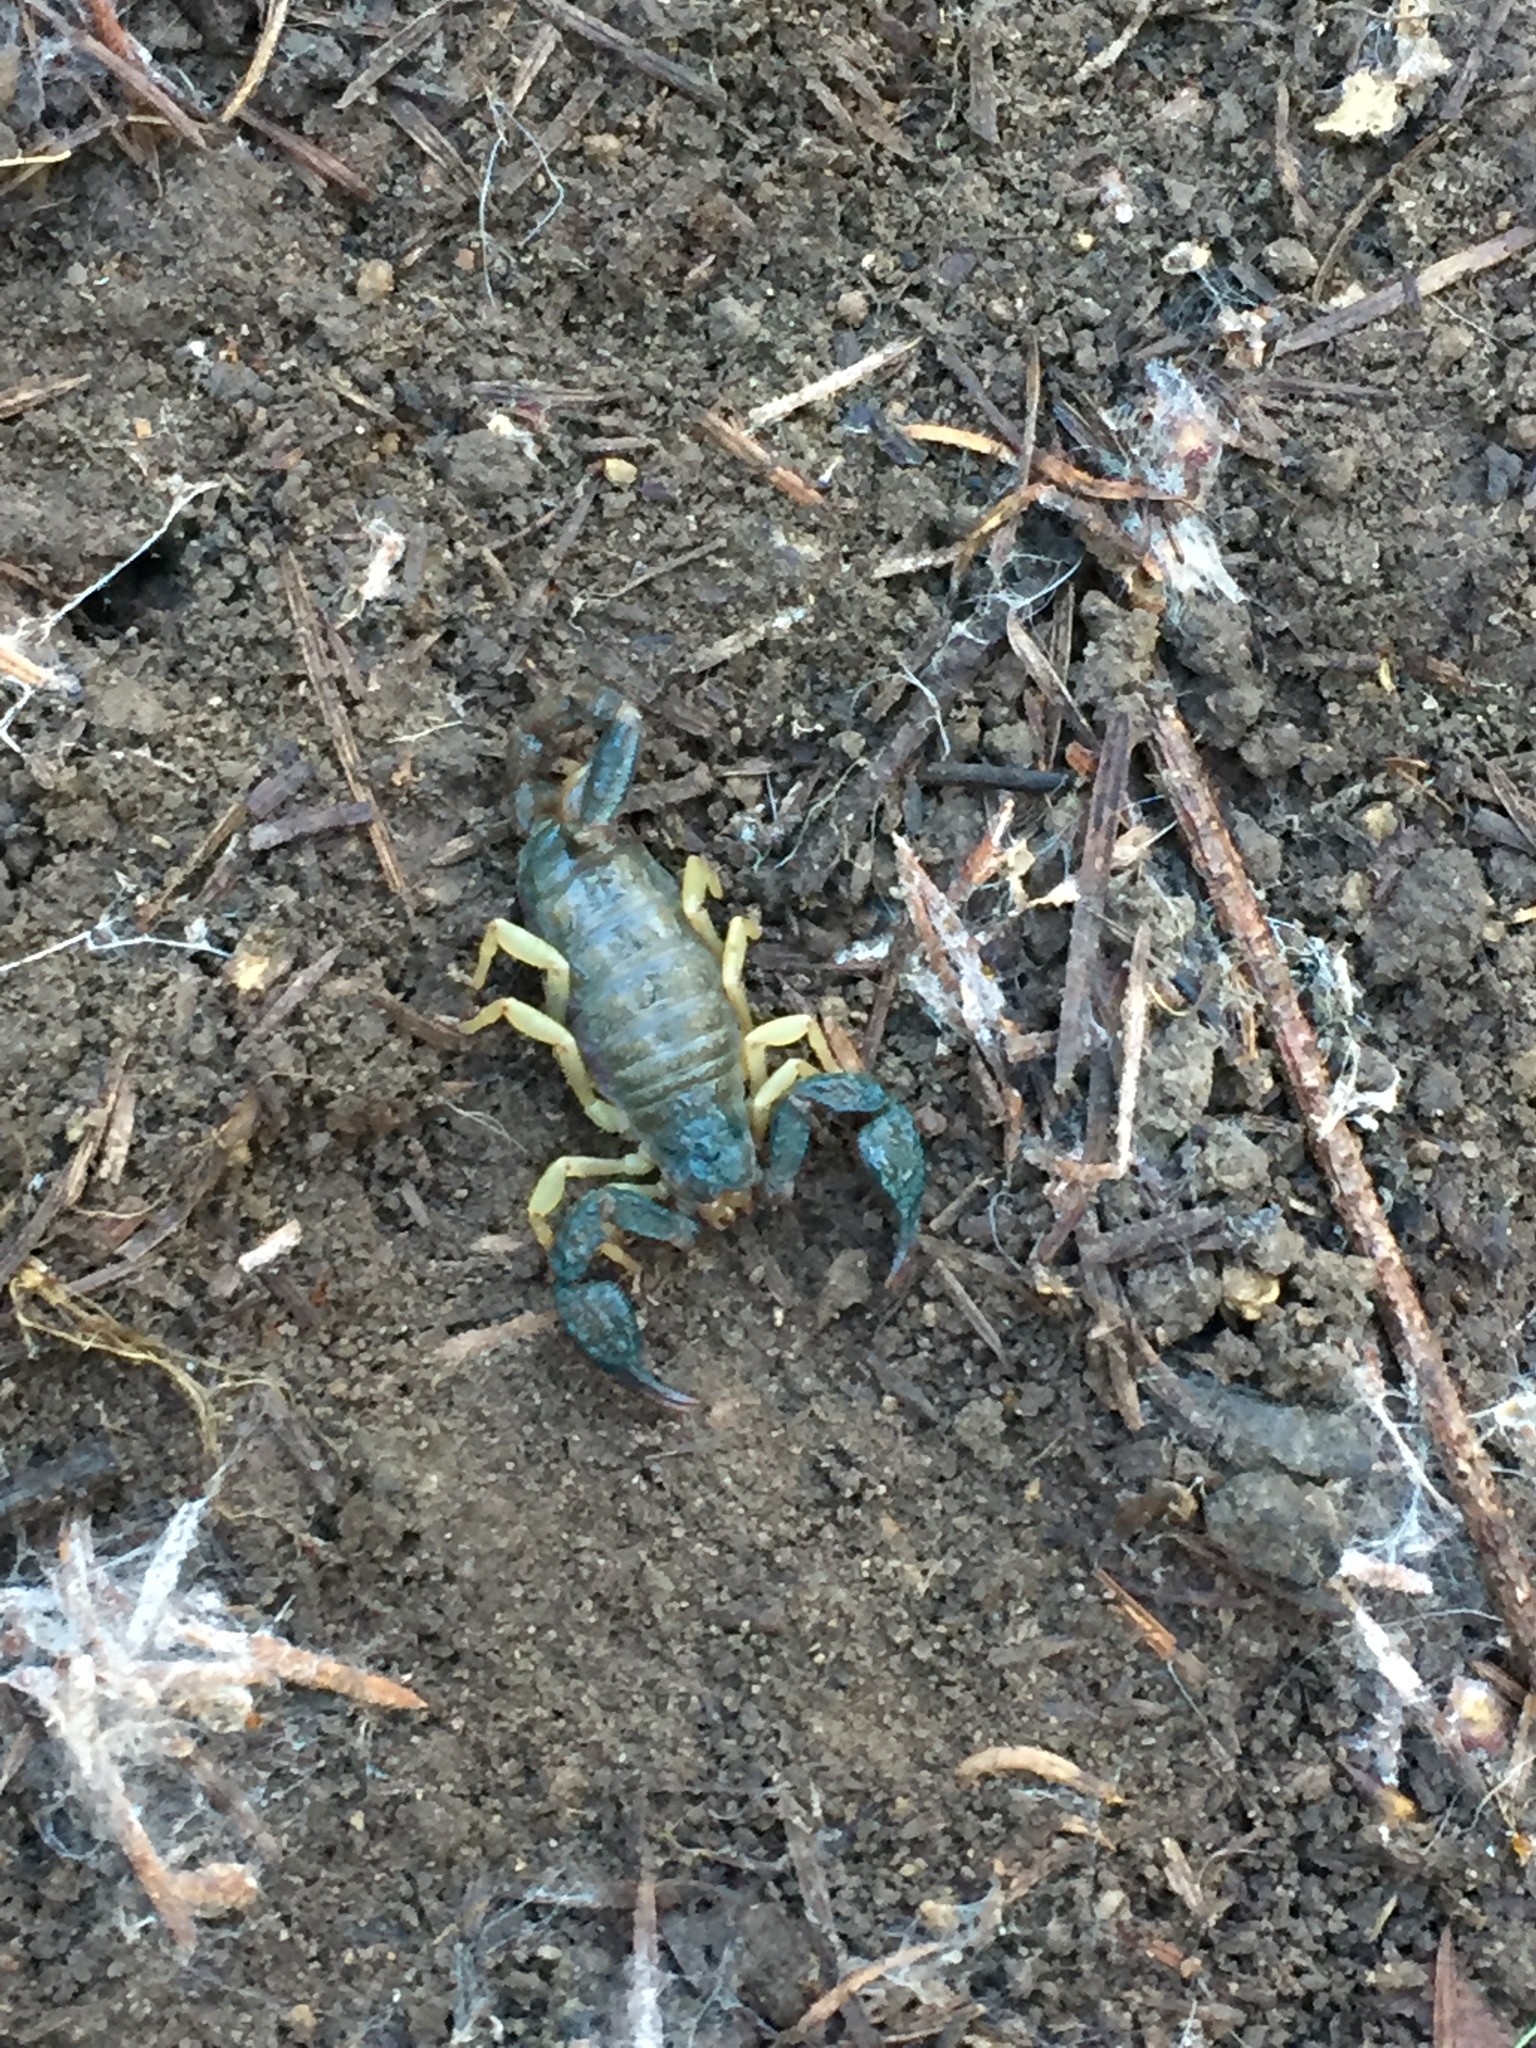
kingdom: Animalia
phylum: Arthropoda
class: Arachnida
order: Scorpiones
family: Chactidae
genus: Uroctonus
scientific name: Uroctonus mordax
